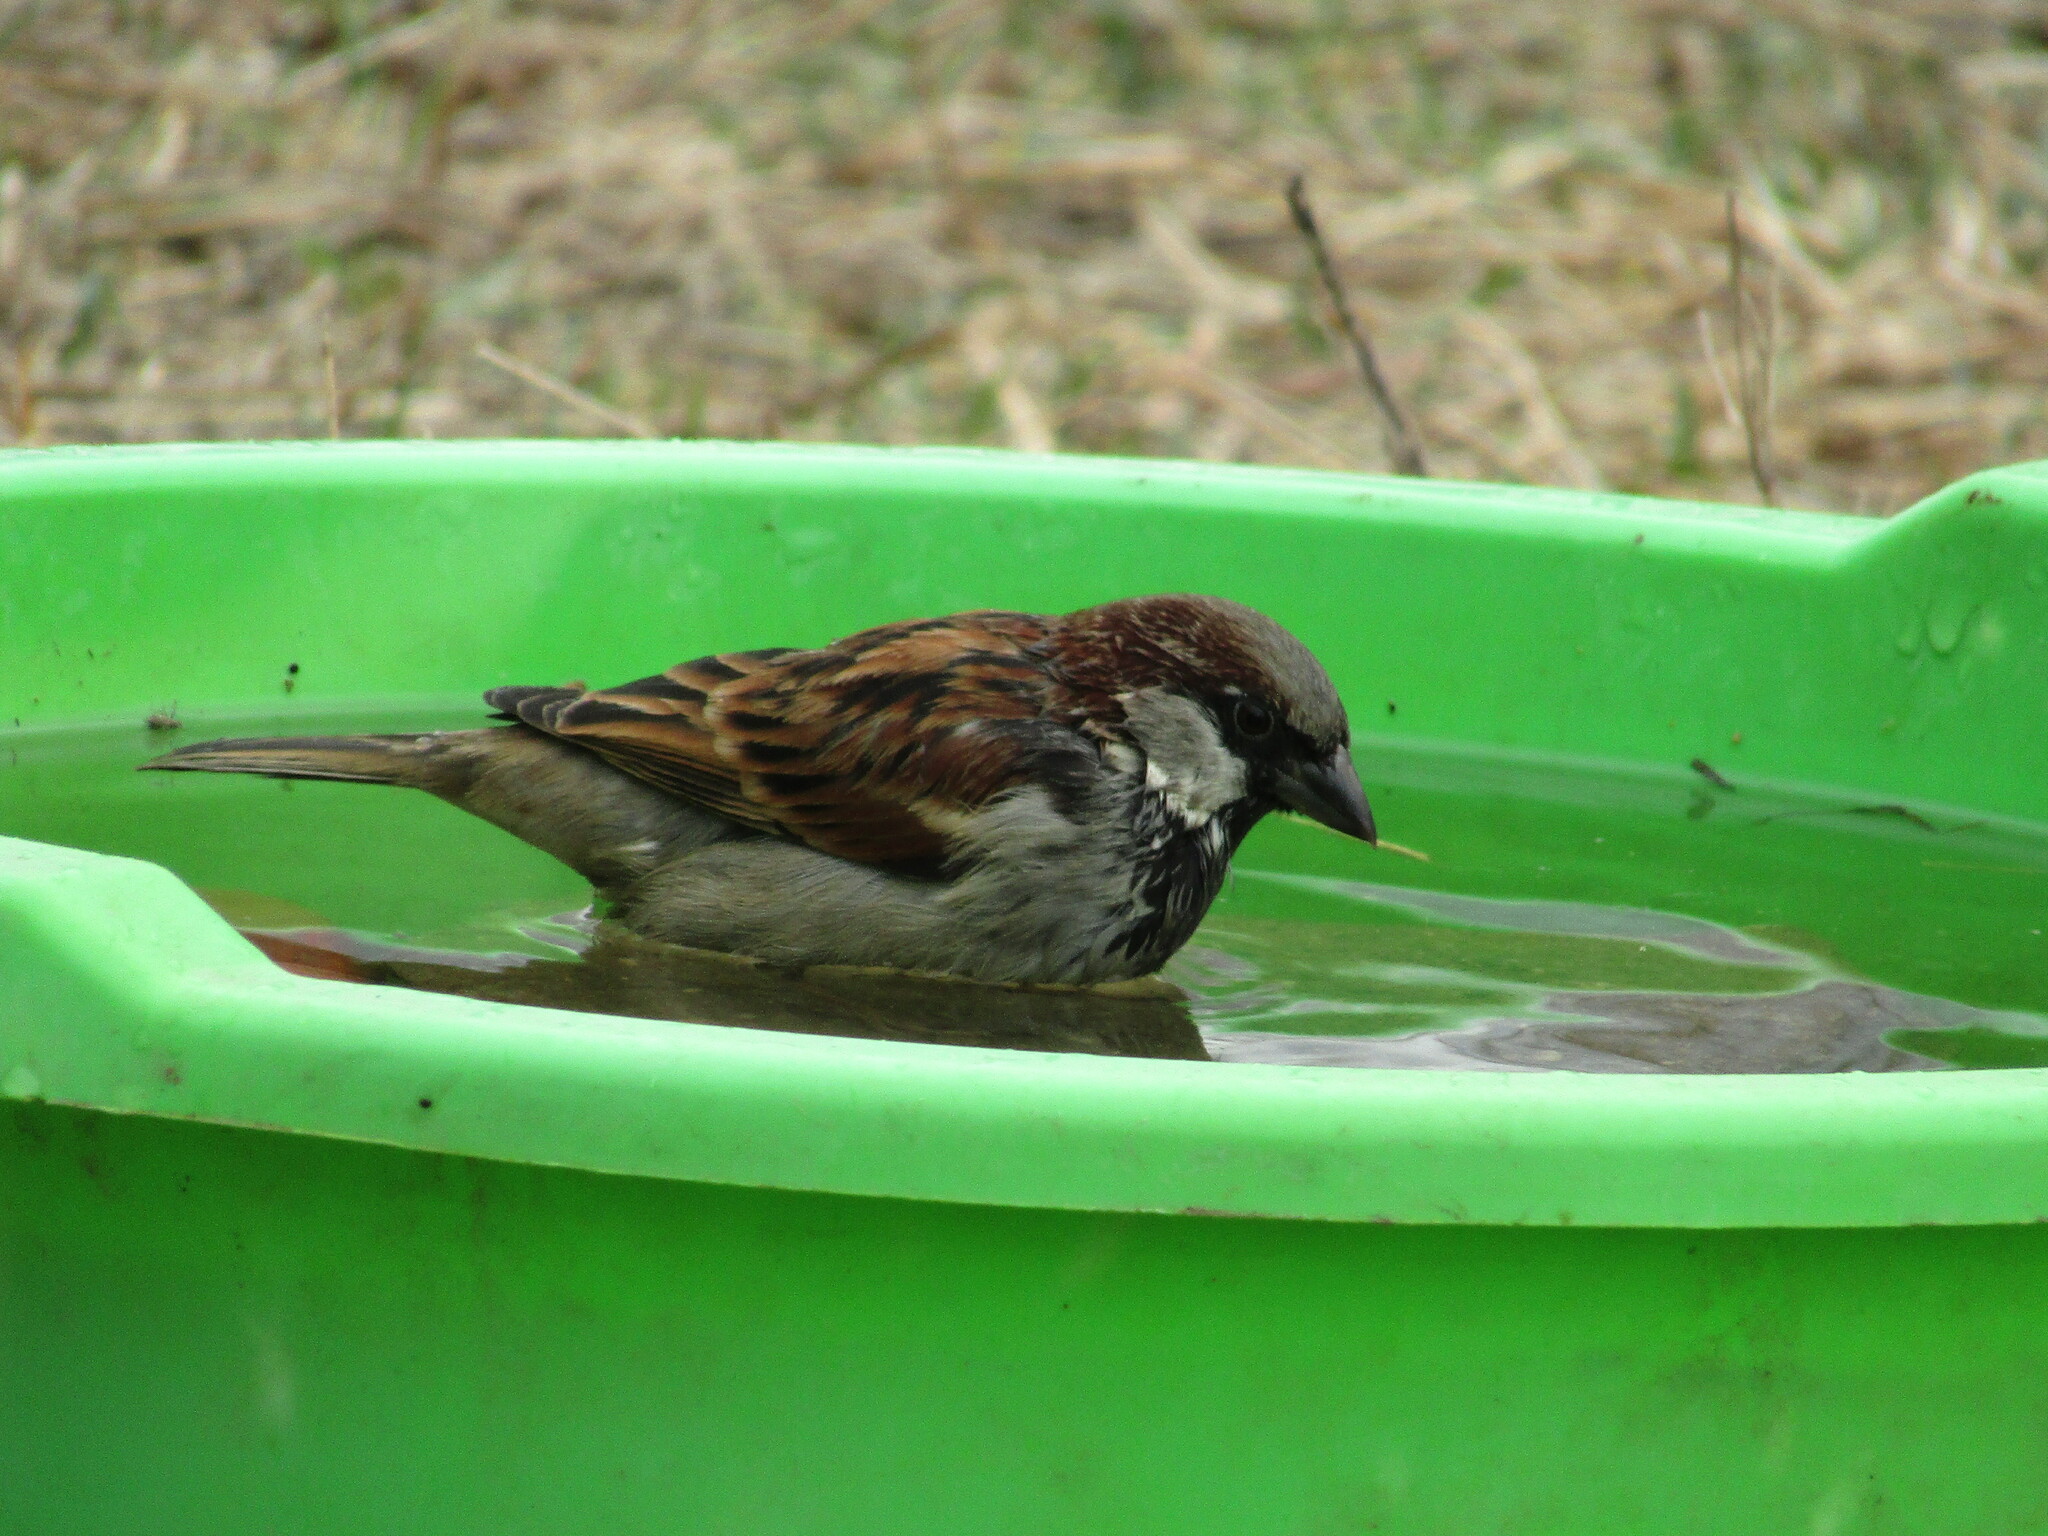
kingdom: Animalia
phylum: Chordata
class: Aves
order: Passeriformes
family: Passeridae
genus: Passer
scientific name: Passer domesticus
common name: House sparrow
